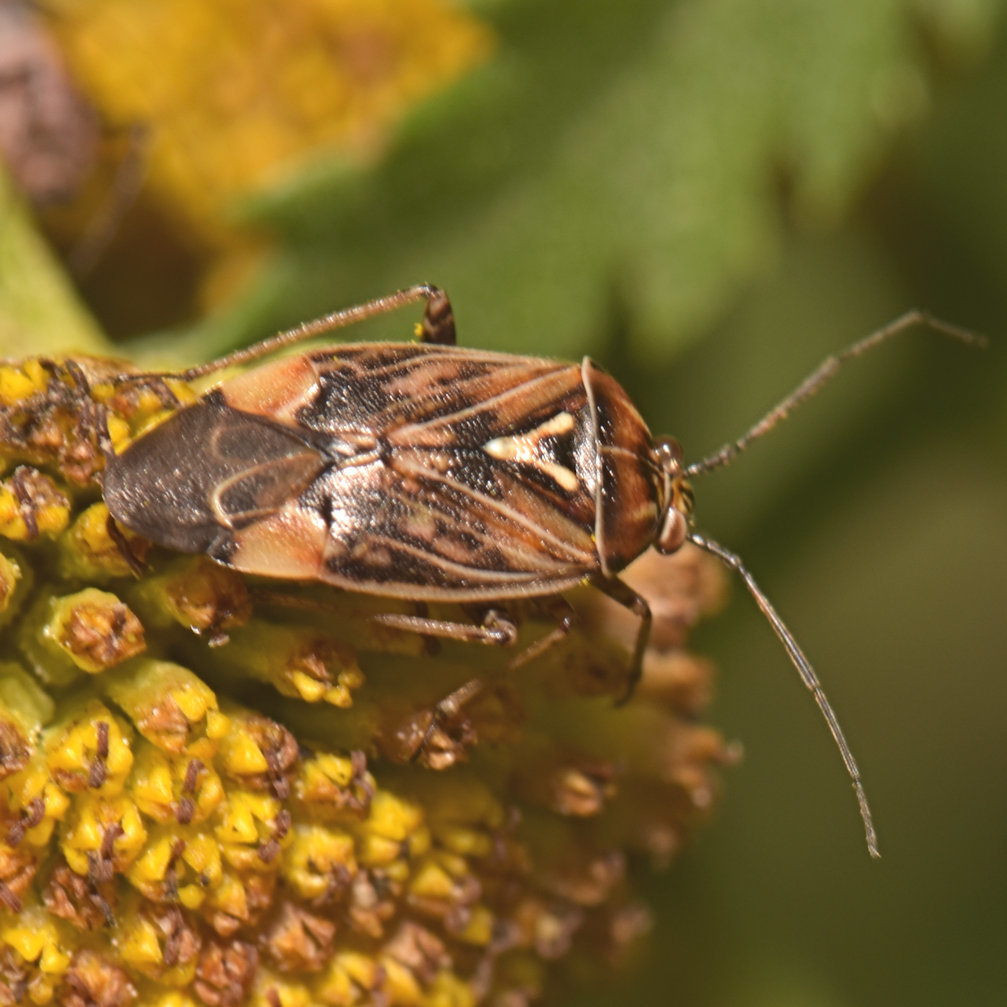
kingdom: Animalia
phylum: Arthropoda
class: Insecta
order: Hemiptera
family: Miridae
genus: Lygus
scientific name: Lygus lineolaris
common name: North american tarnished plant bug
